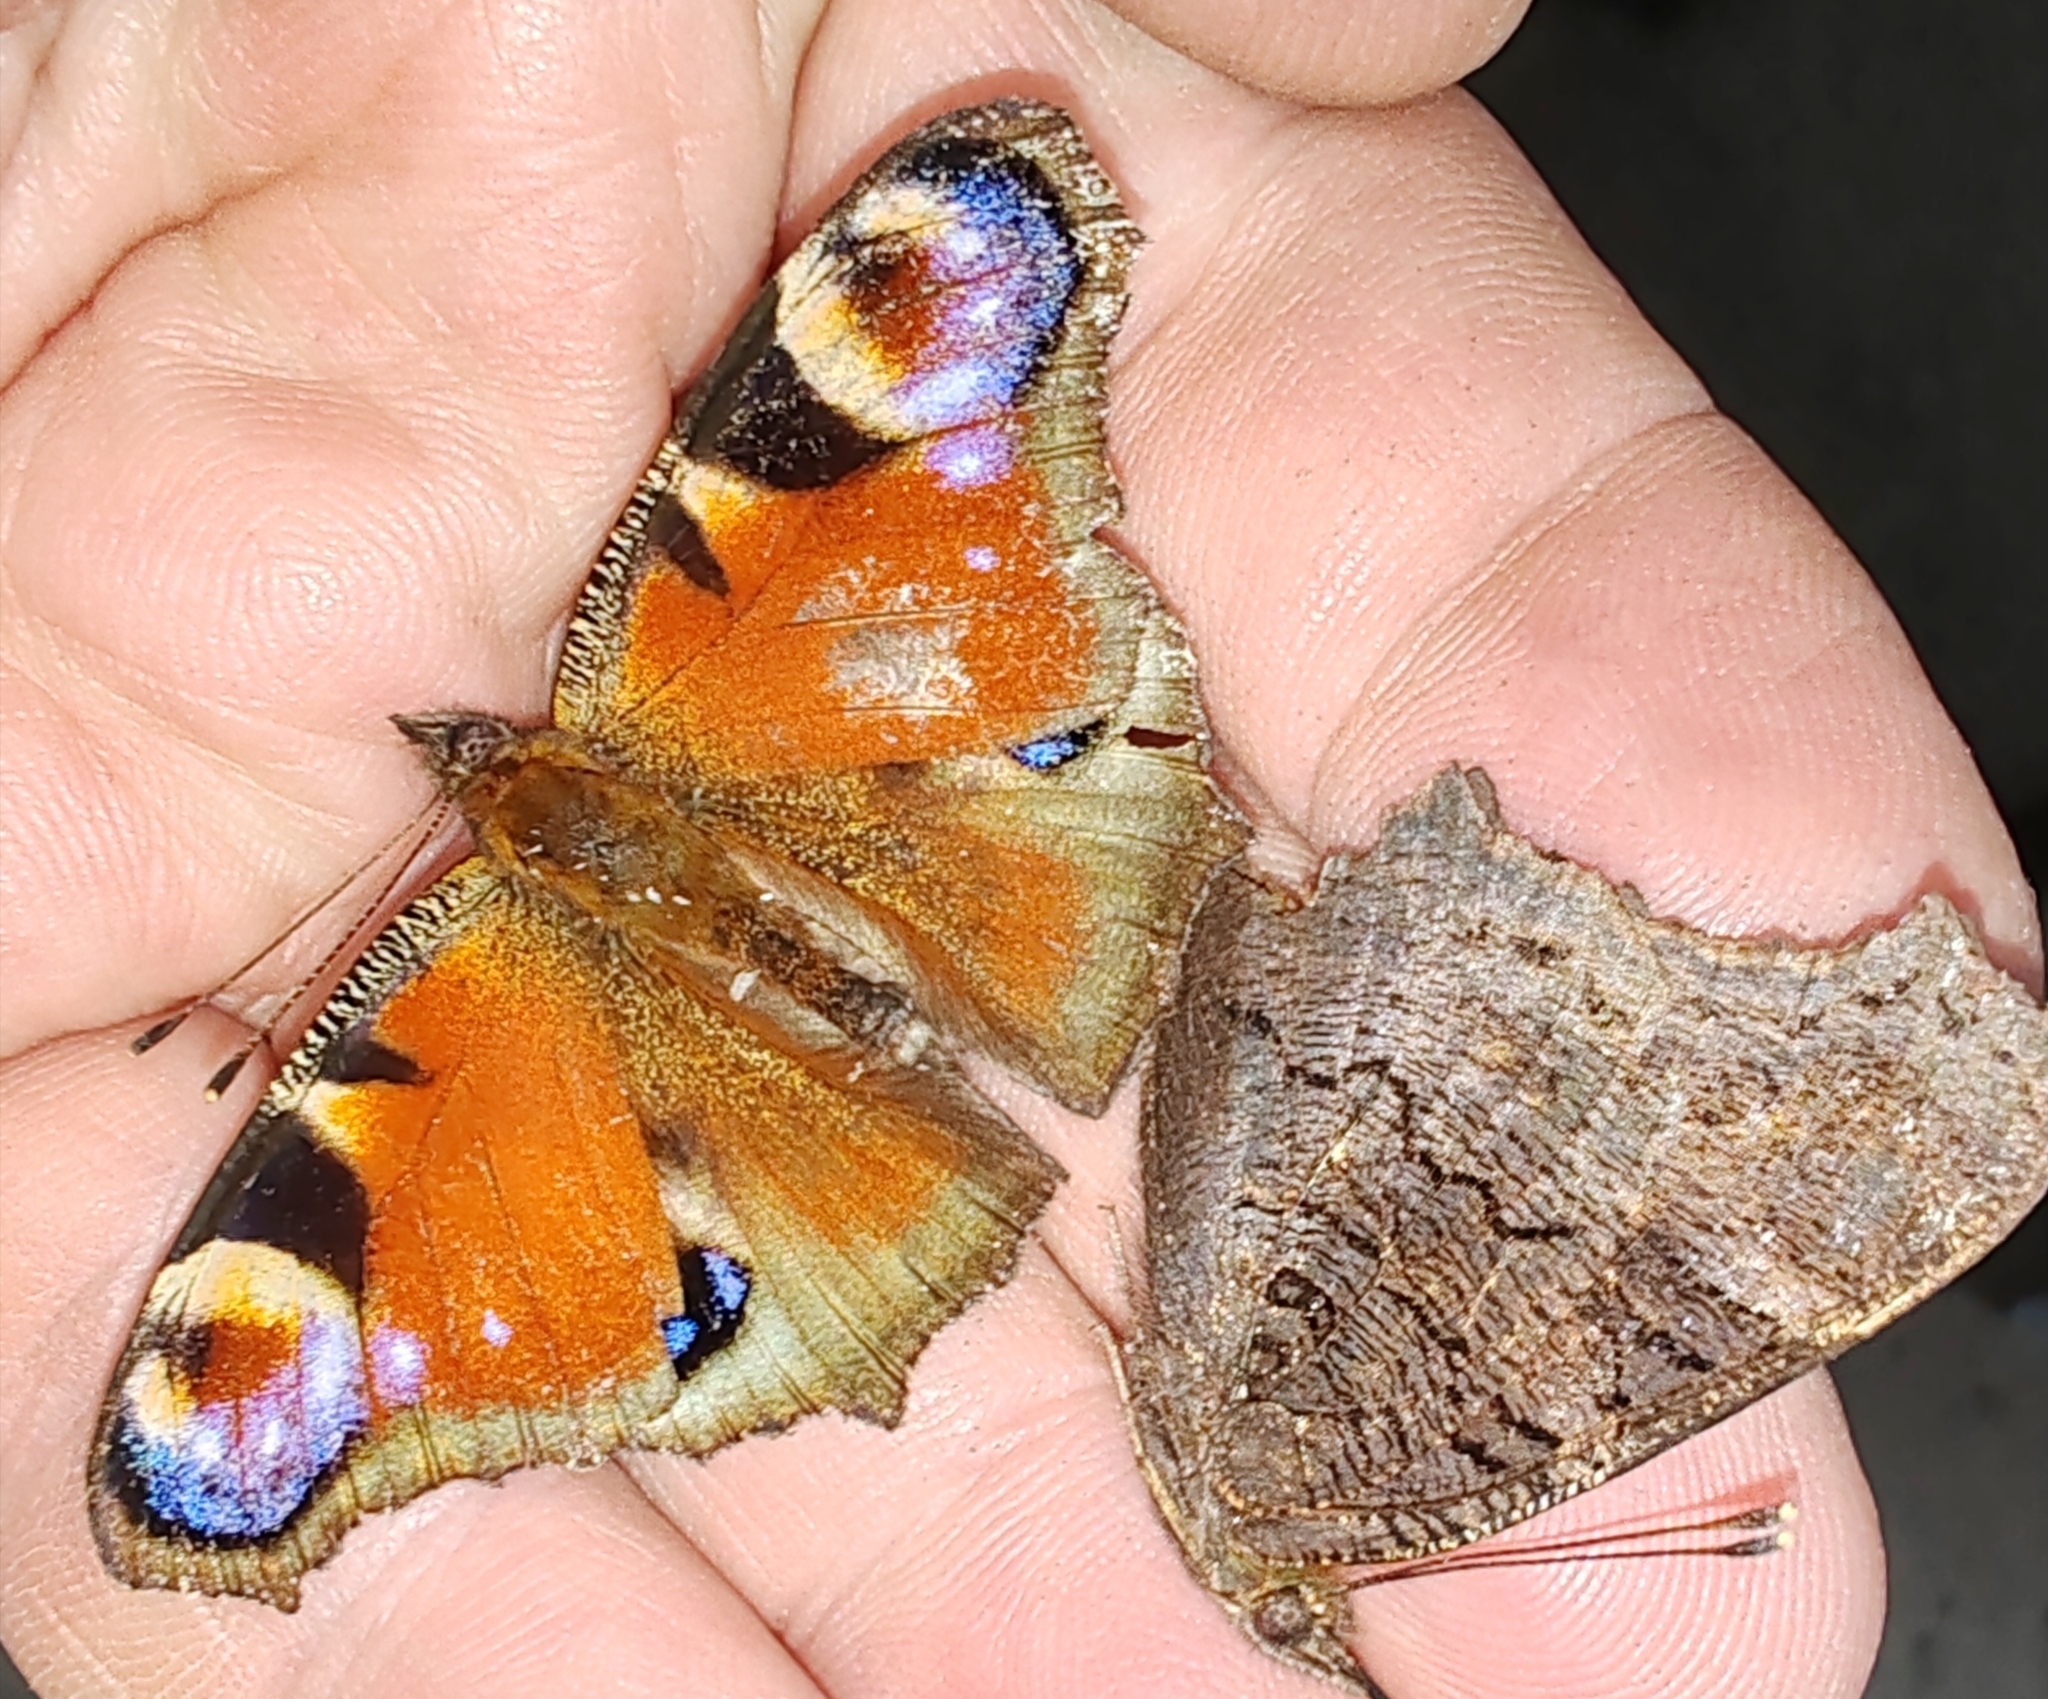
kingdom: Animalia
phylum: Arthropoda
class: Insecta
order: Lepidoptera
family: Nymphalidae
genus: Aglais
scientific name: Aglais io
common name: Peacock
